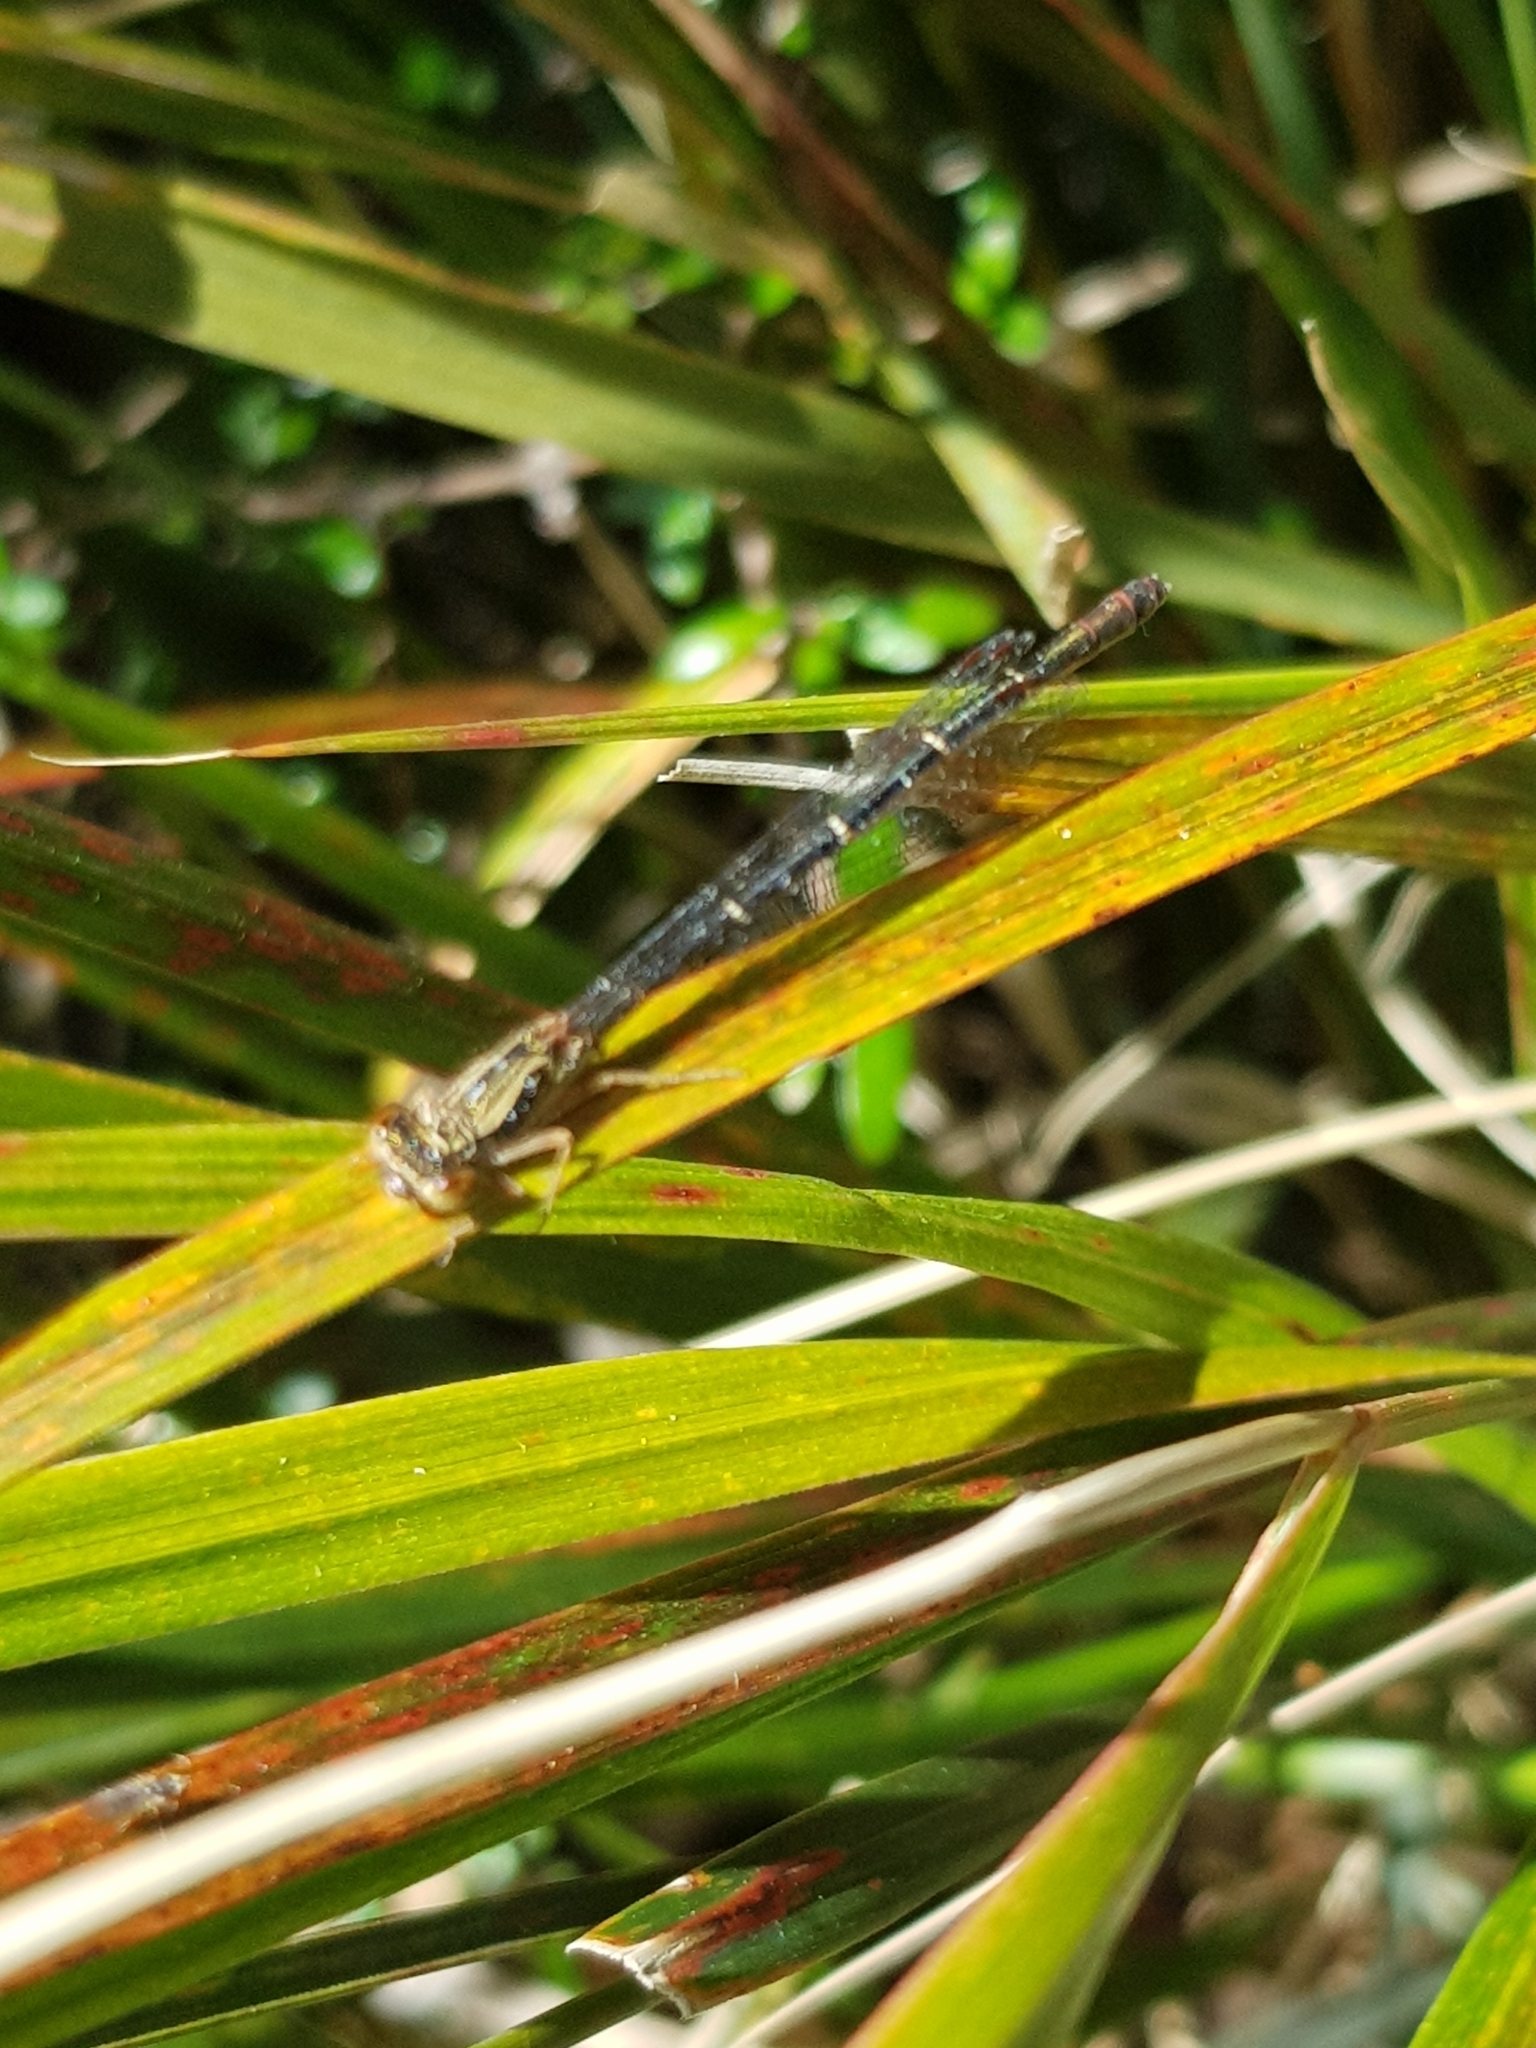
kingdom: Animalia
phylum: Arthropoda
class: Insecta
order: Odonata
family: Coenagrionidae
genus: Xanthocnemis
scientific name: Xanthocnemis zealandica
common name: Common redcoat damselfly
